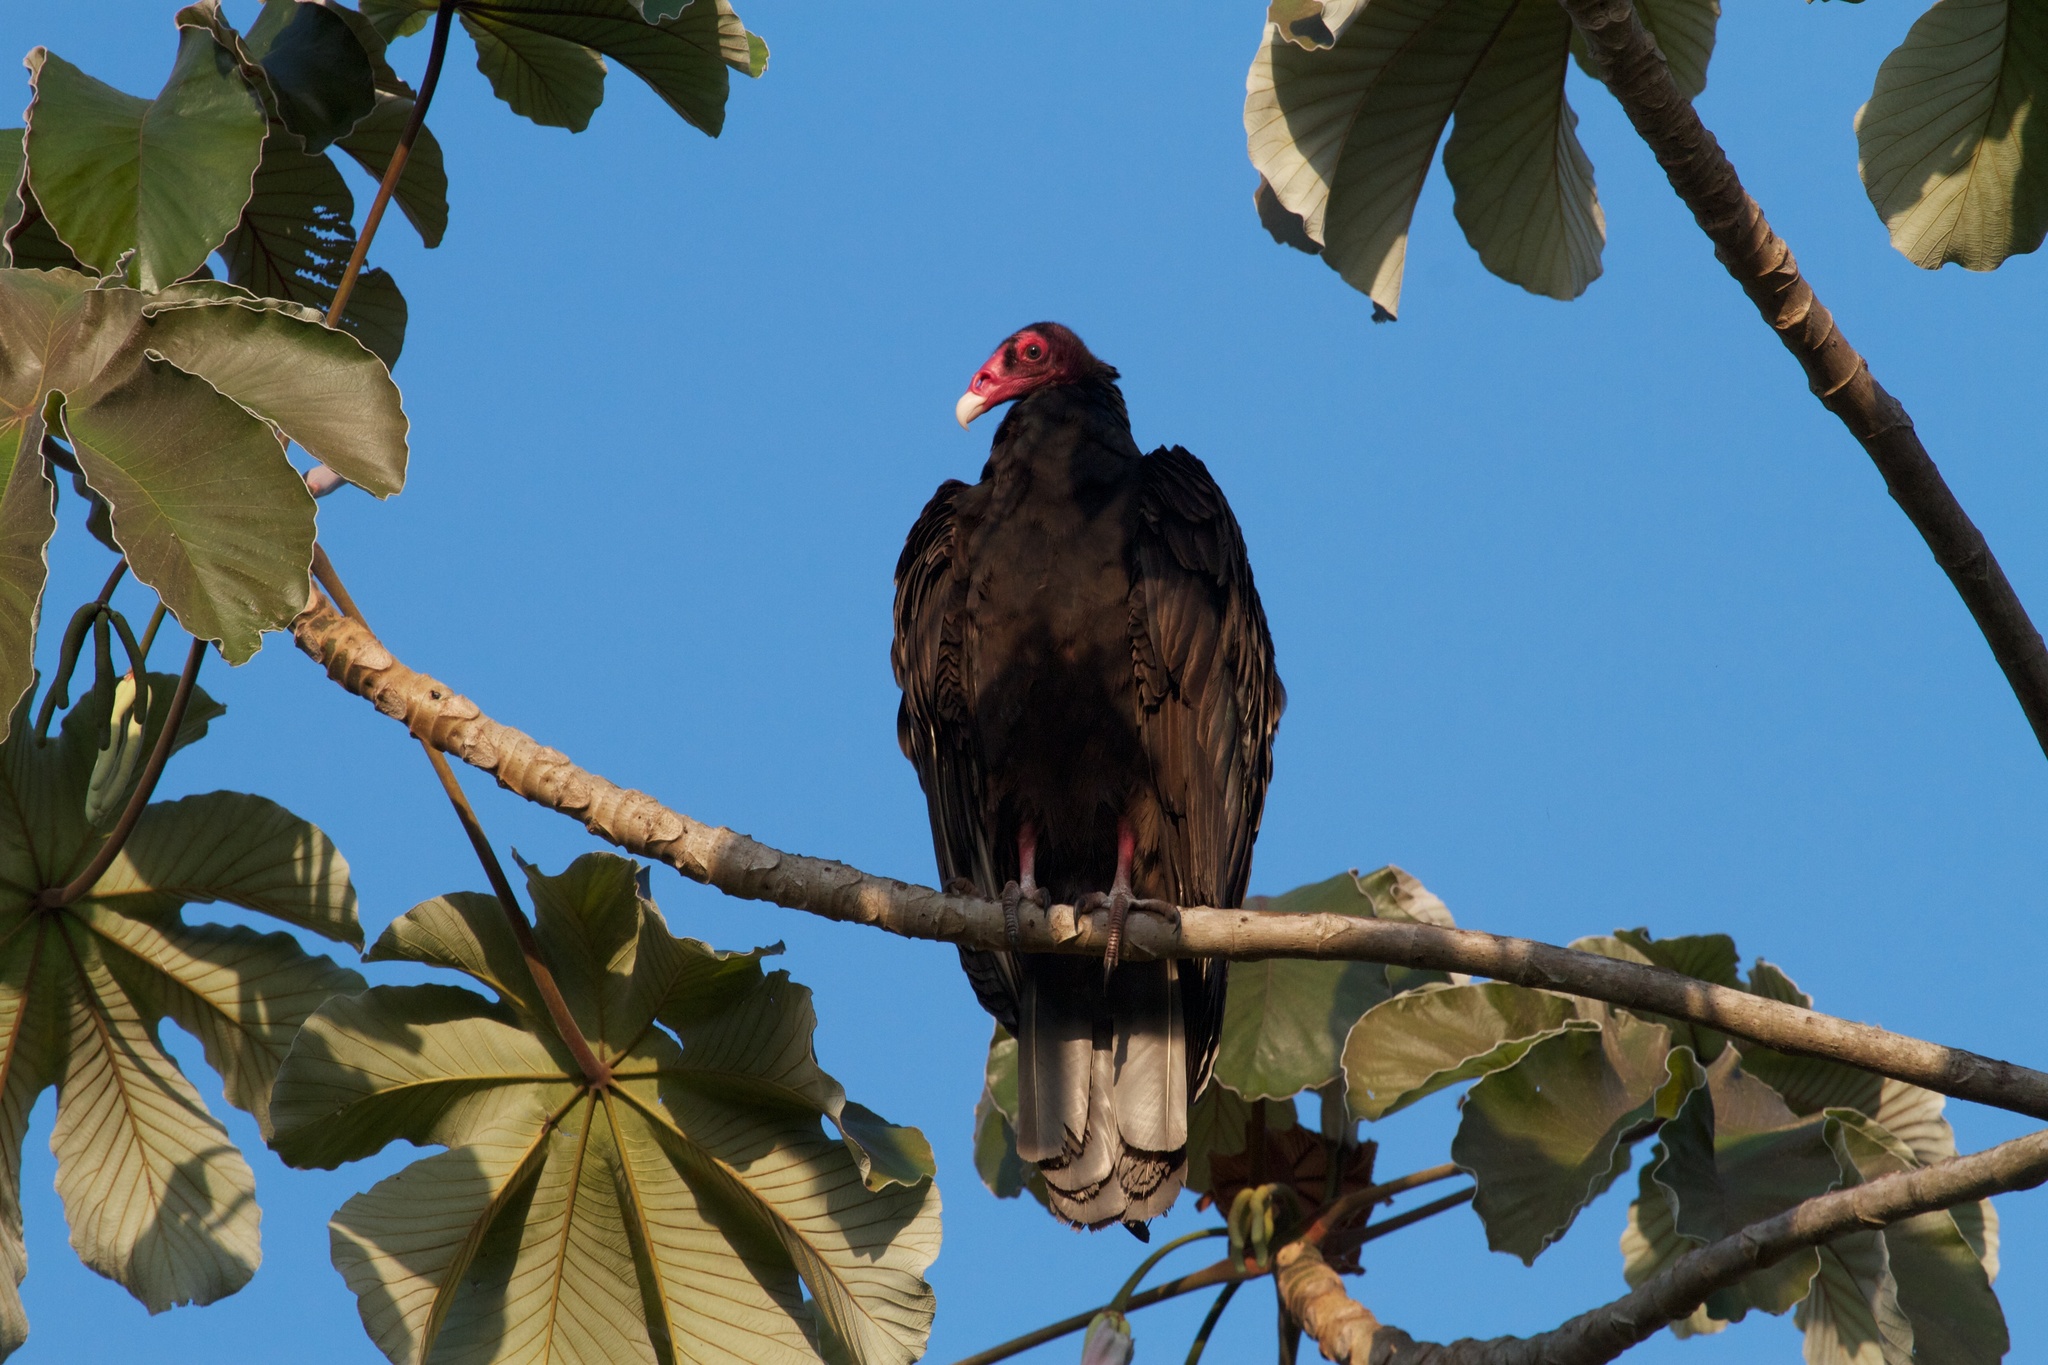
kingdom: Animalia
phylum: Chordata
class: Aves
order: Accipitriformes
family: Cathartidae
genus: Cathartes
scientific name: Cathartes aura
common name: Turkey vulture
